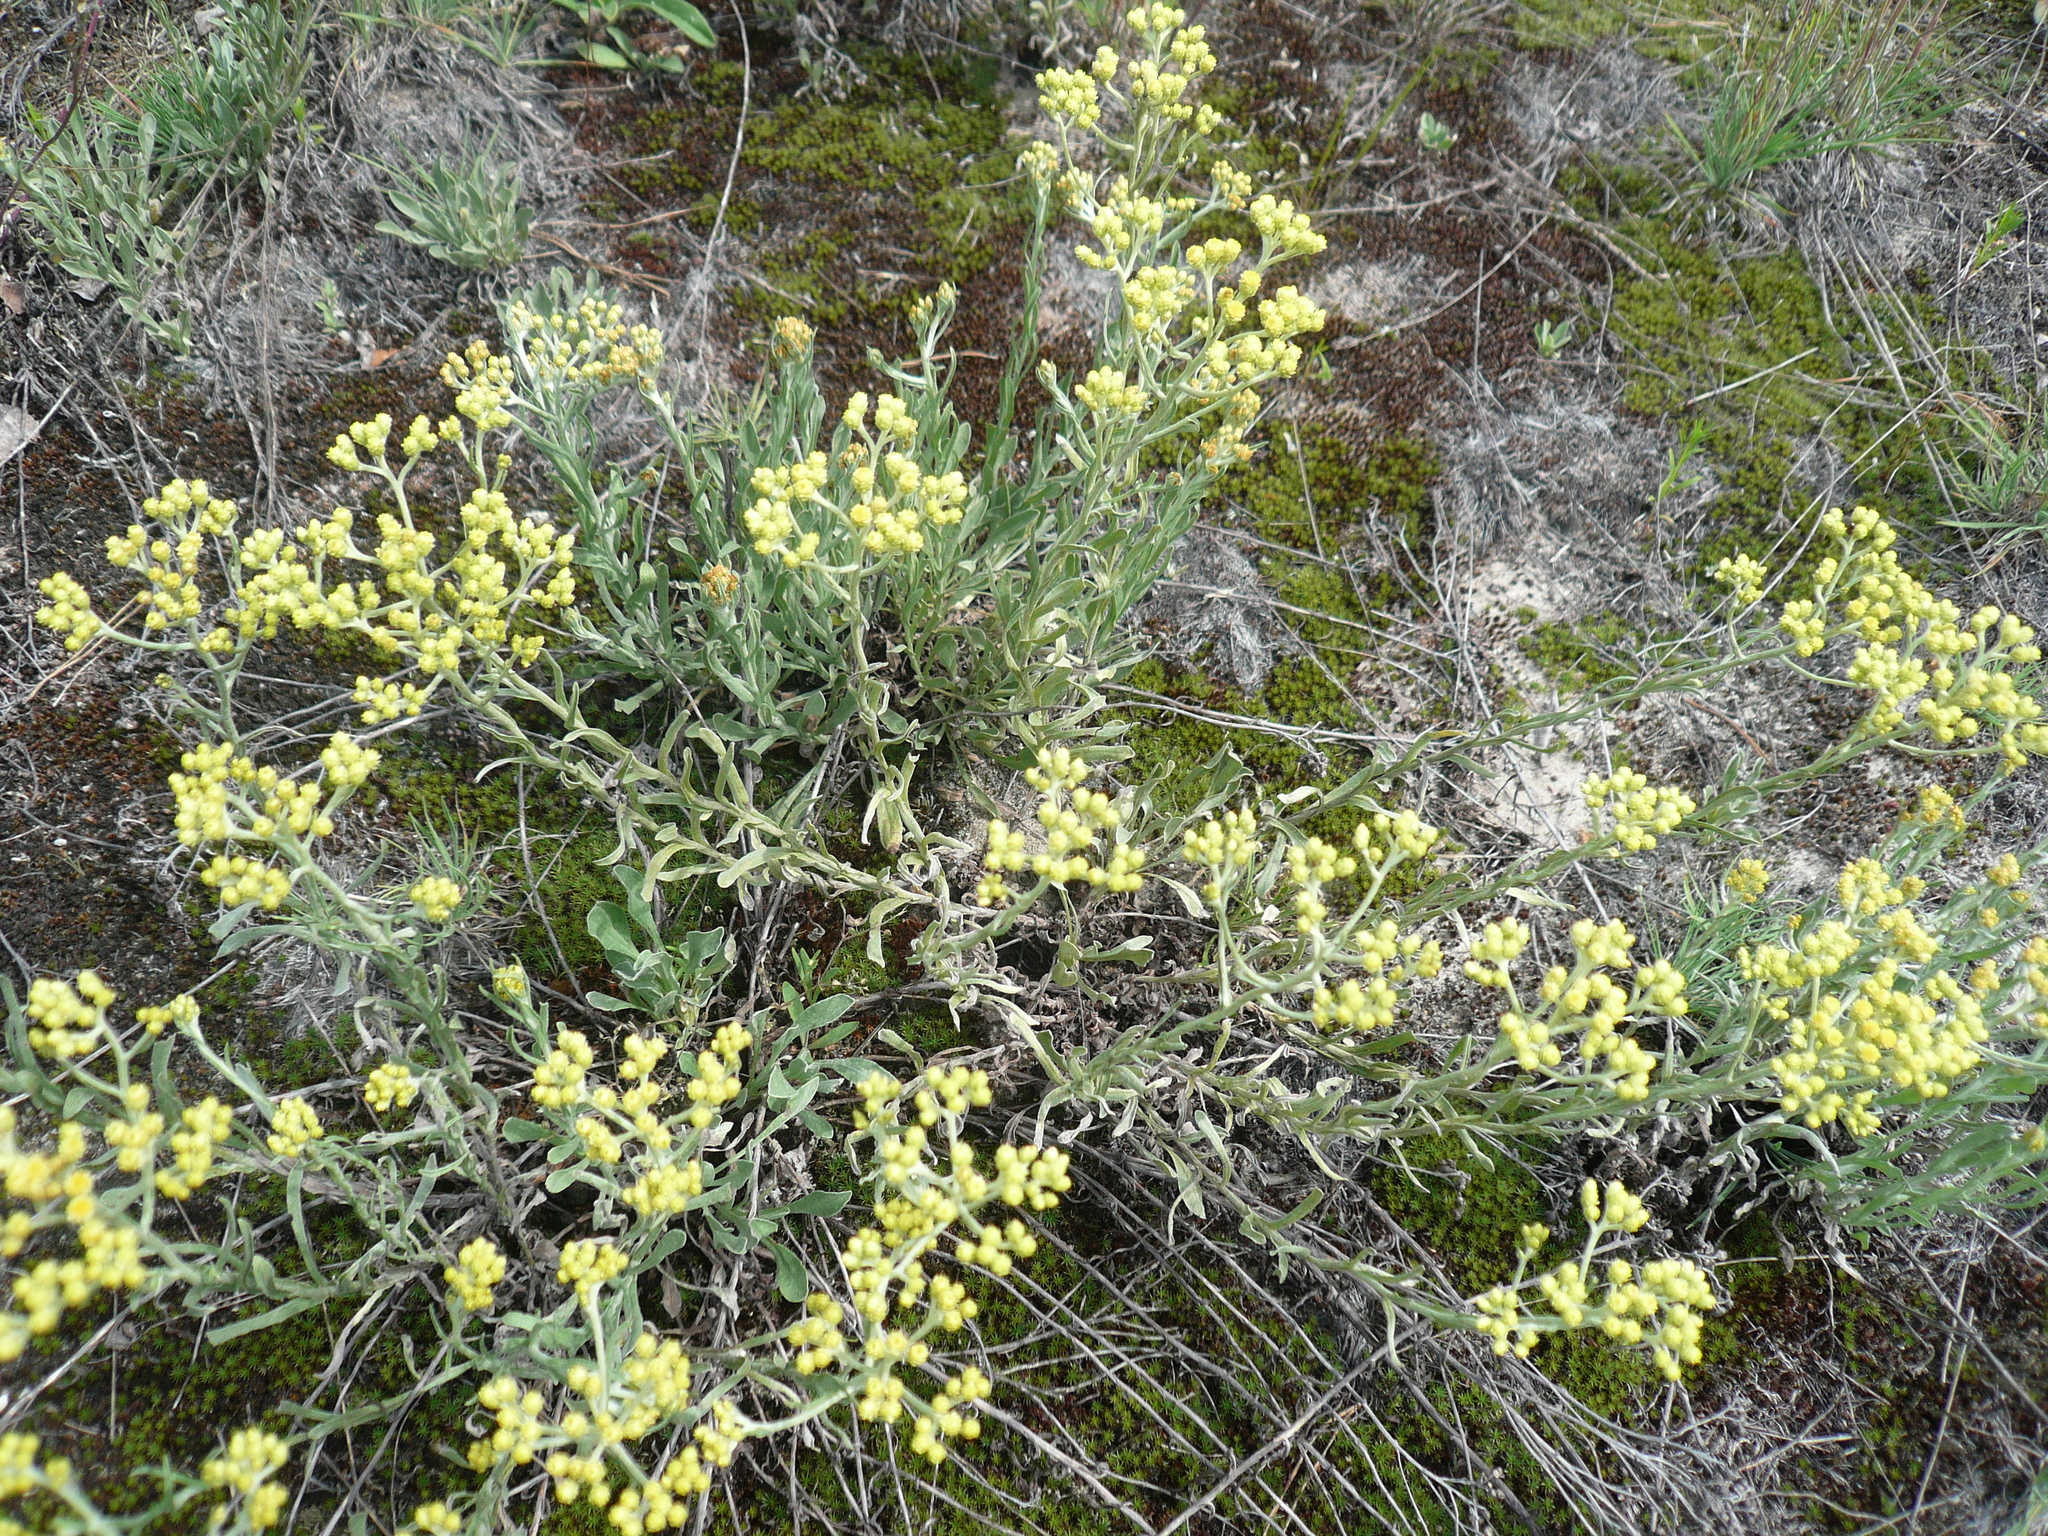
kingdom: Plantae
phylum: Tracheophyta
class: Magnoliopsida
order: Asterales
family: Asteraceae
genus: Helichrysum
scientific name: Helichrysum arenarium
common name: Strawflower
